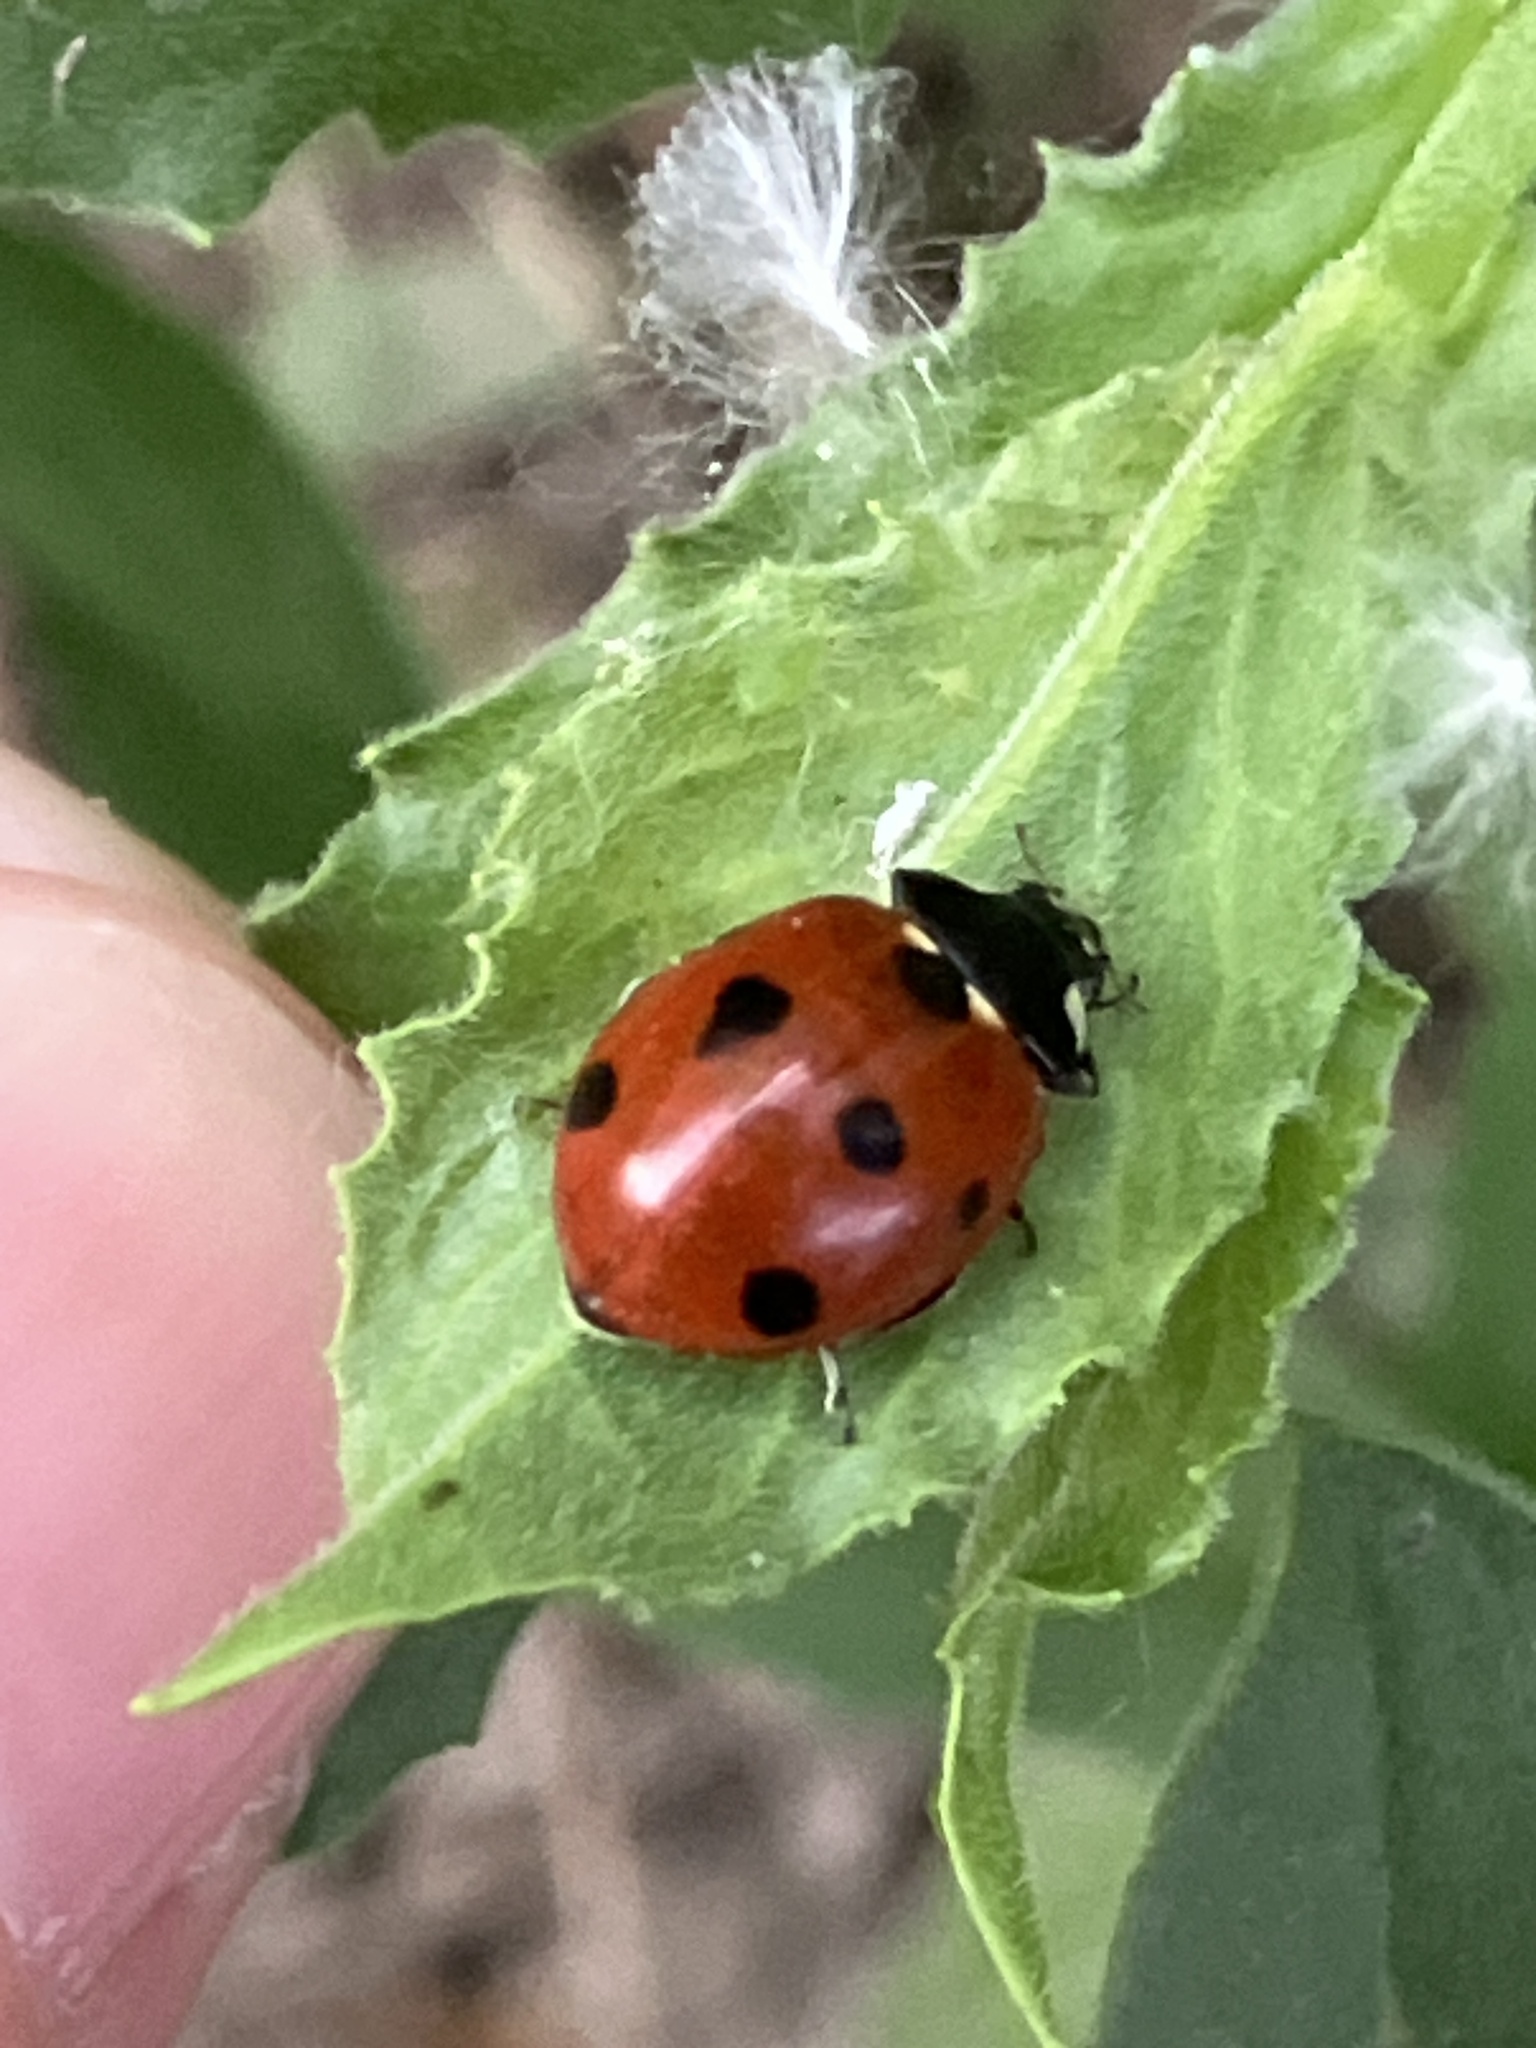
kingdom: Animalia
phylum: Arthropoda
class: Insecta
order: Coleoptera
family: Coccinellidae
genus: Coccinella
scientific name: Coccinella septempunctata
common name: Sevenspotted lady beetle
